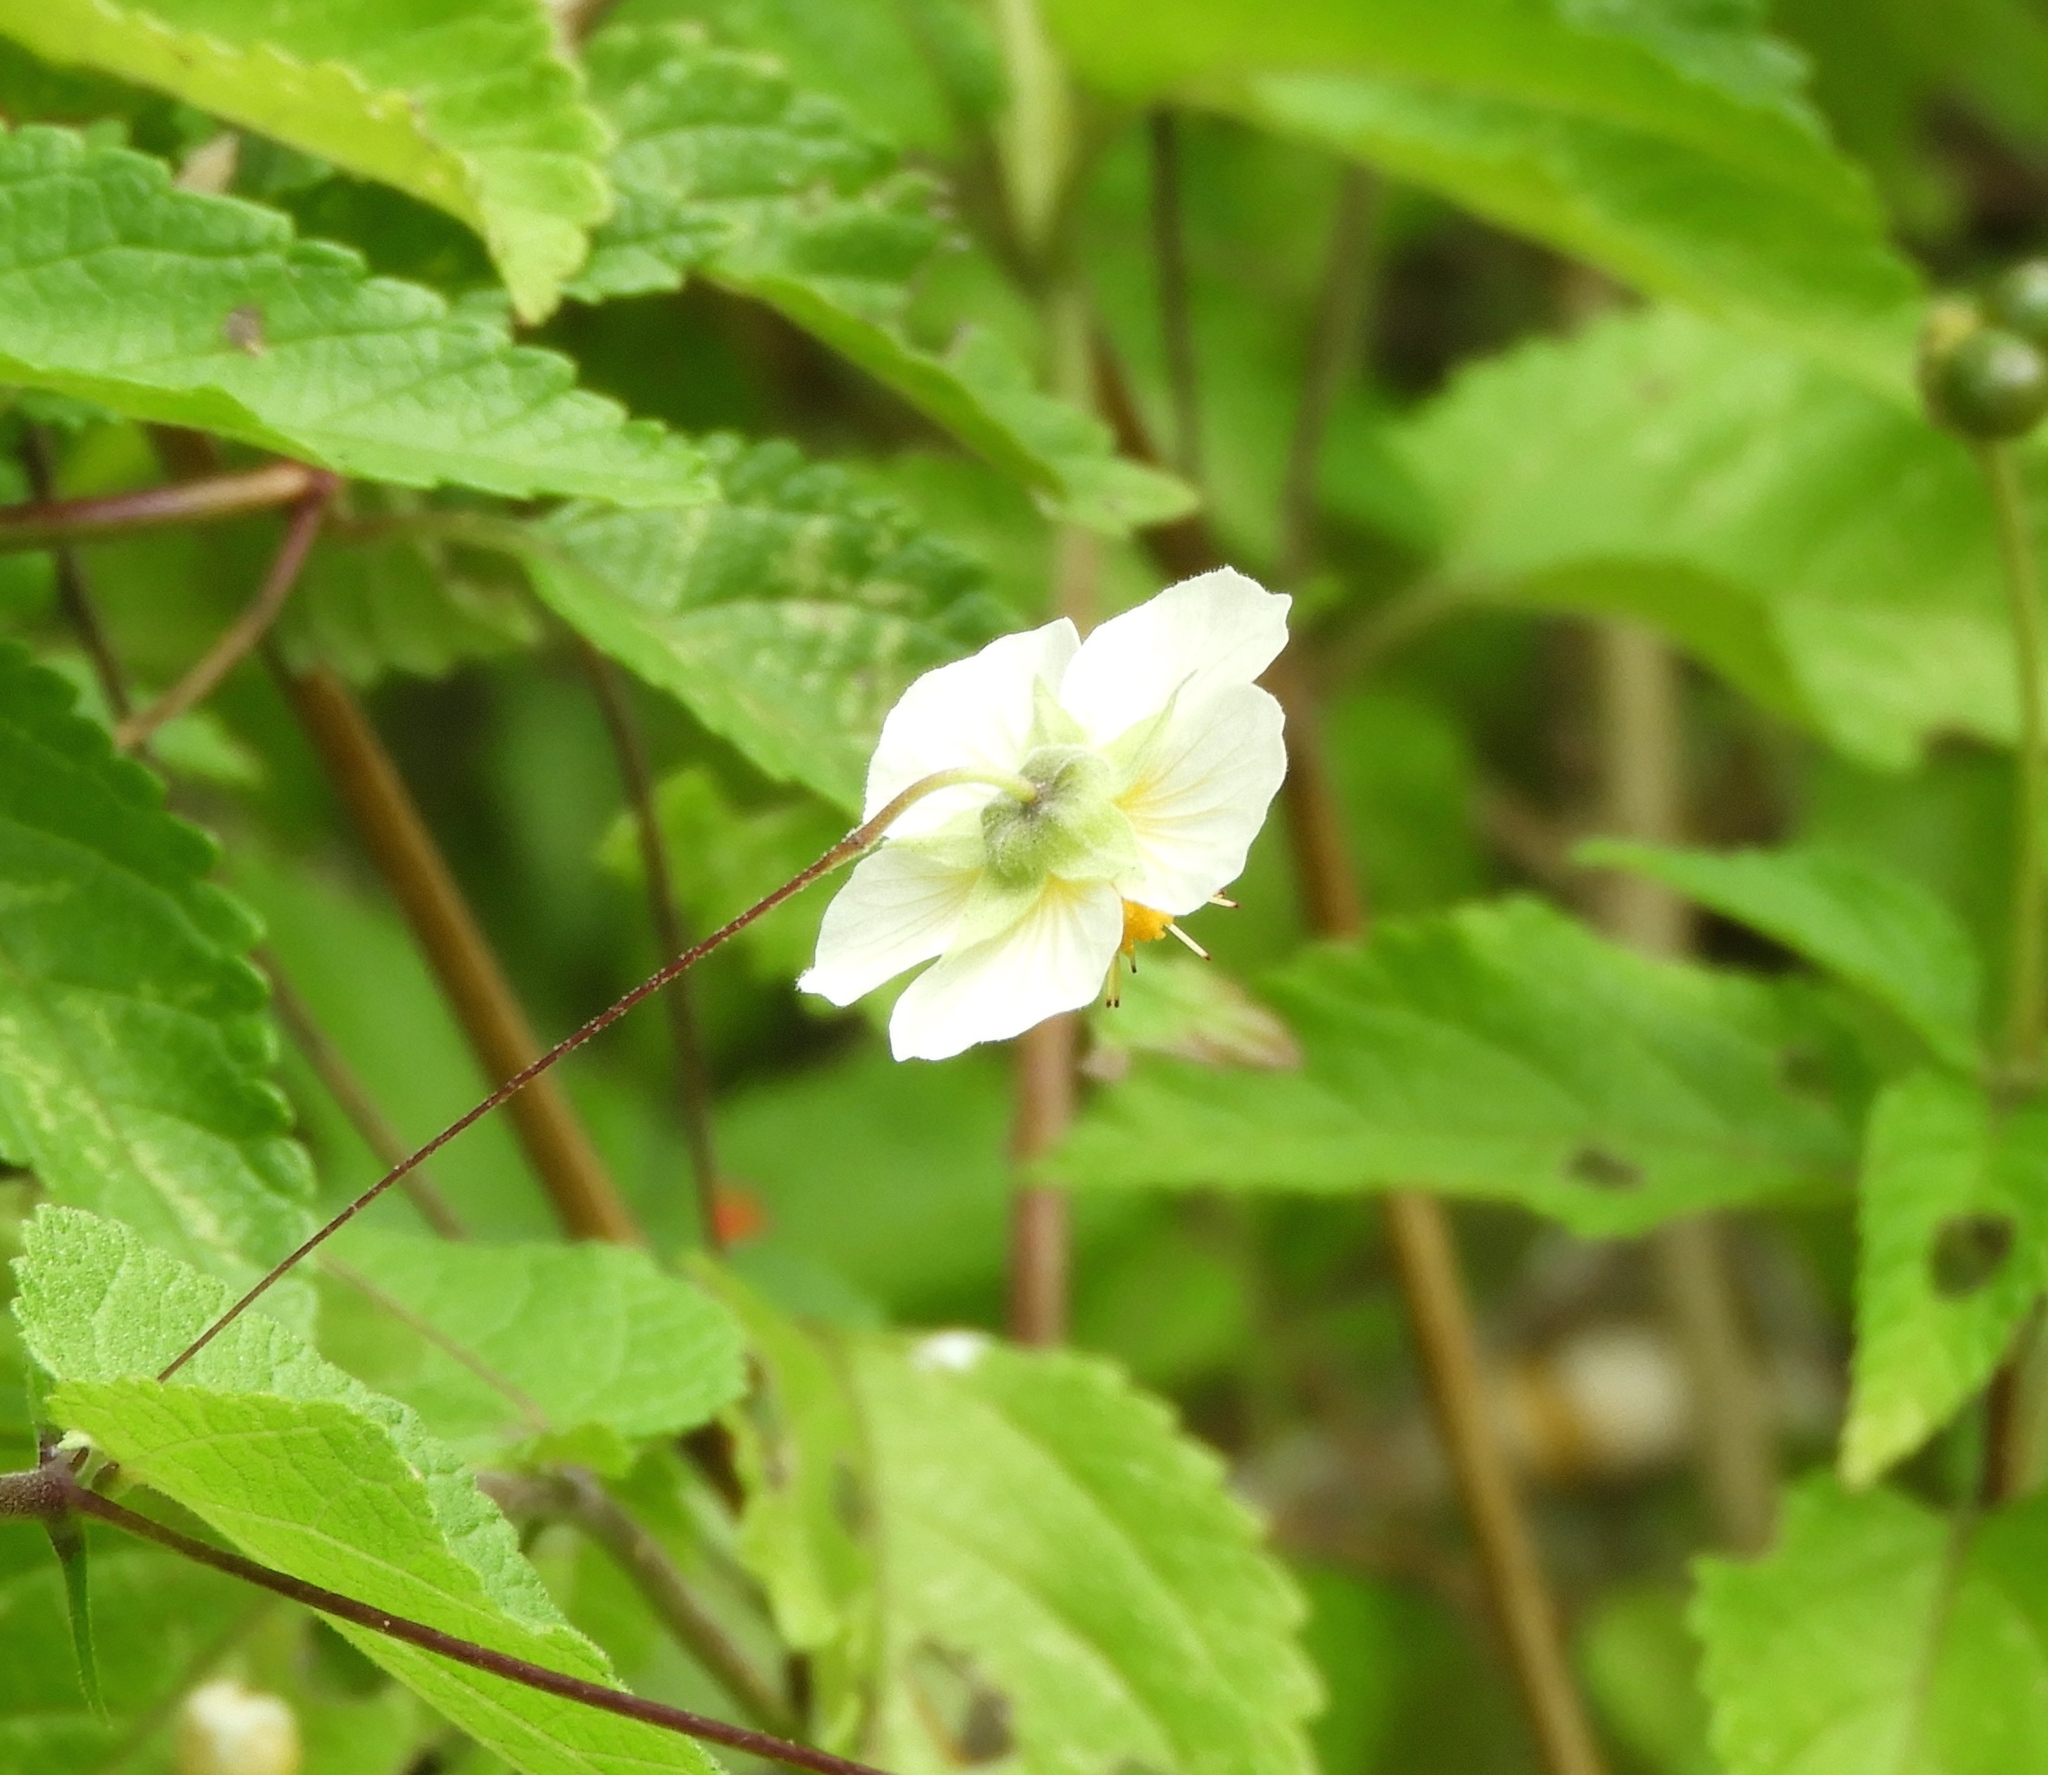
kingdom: Plantae
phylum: Tracheophyta
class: Magnoliopsida
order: Malvales
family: Malvaceae
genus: Herissantia
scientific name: Herissantia crispa
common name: Bladdermallow
